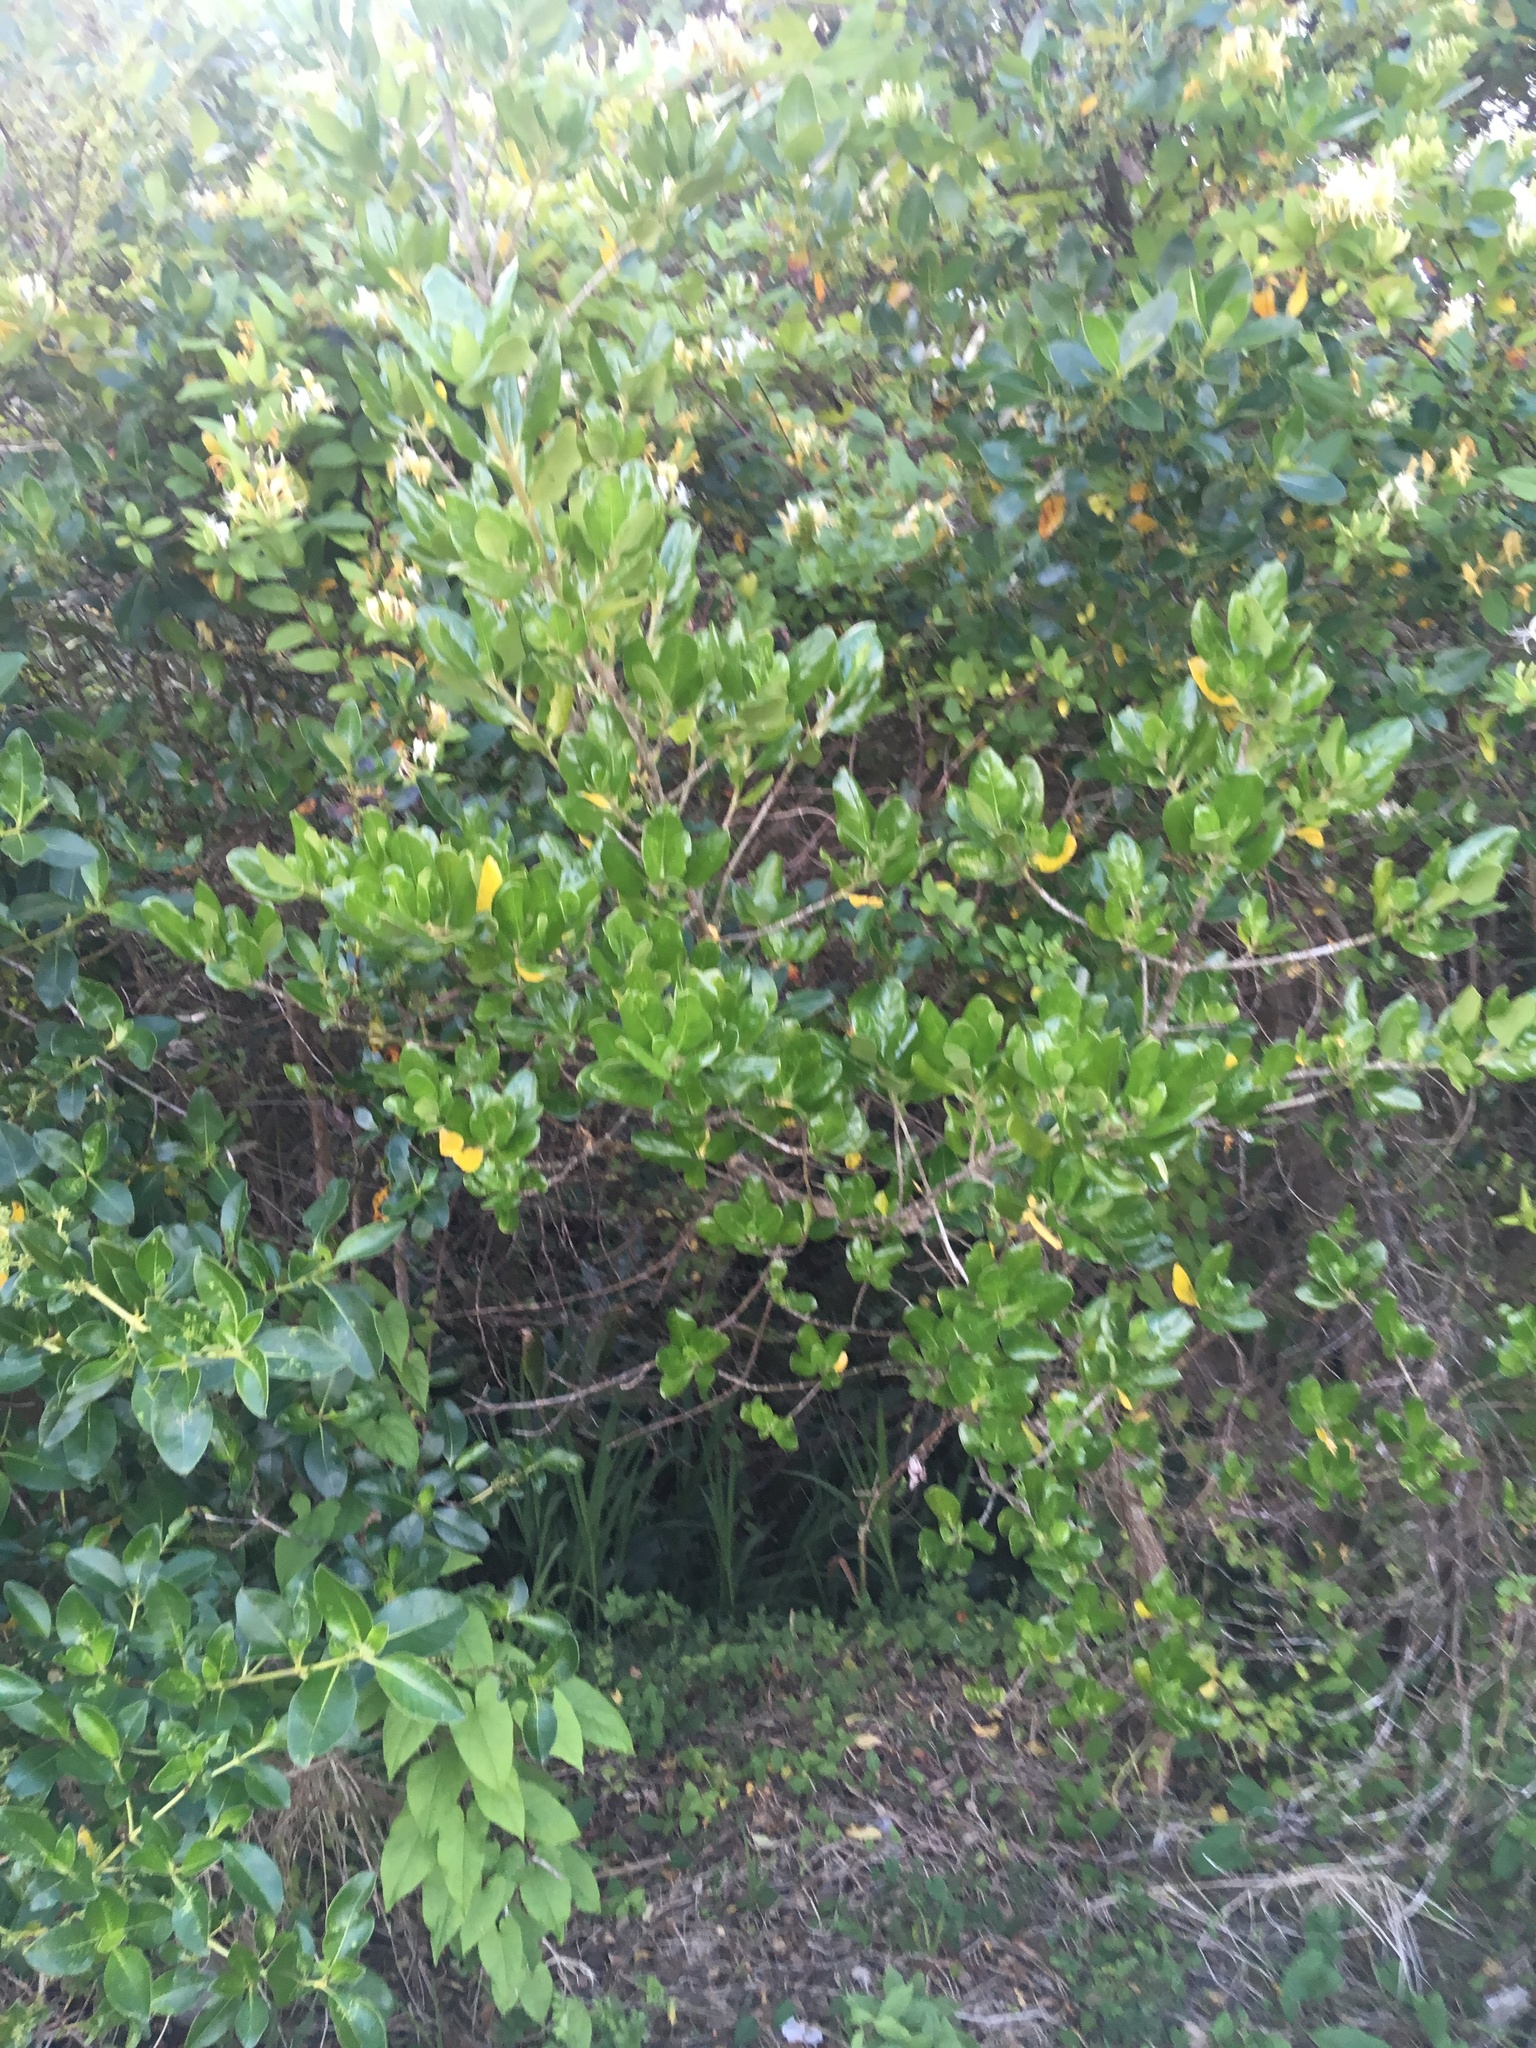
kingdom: Plantae
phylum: Tracheophyta
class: Magnoliopsida
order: Dipsacales
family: Caprifoliaceae
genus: Lonicera
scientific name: Lonicera japonica
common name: Japanese honeysuckle
